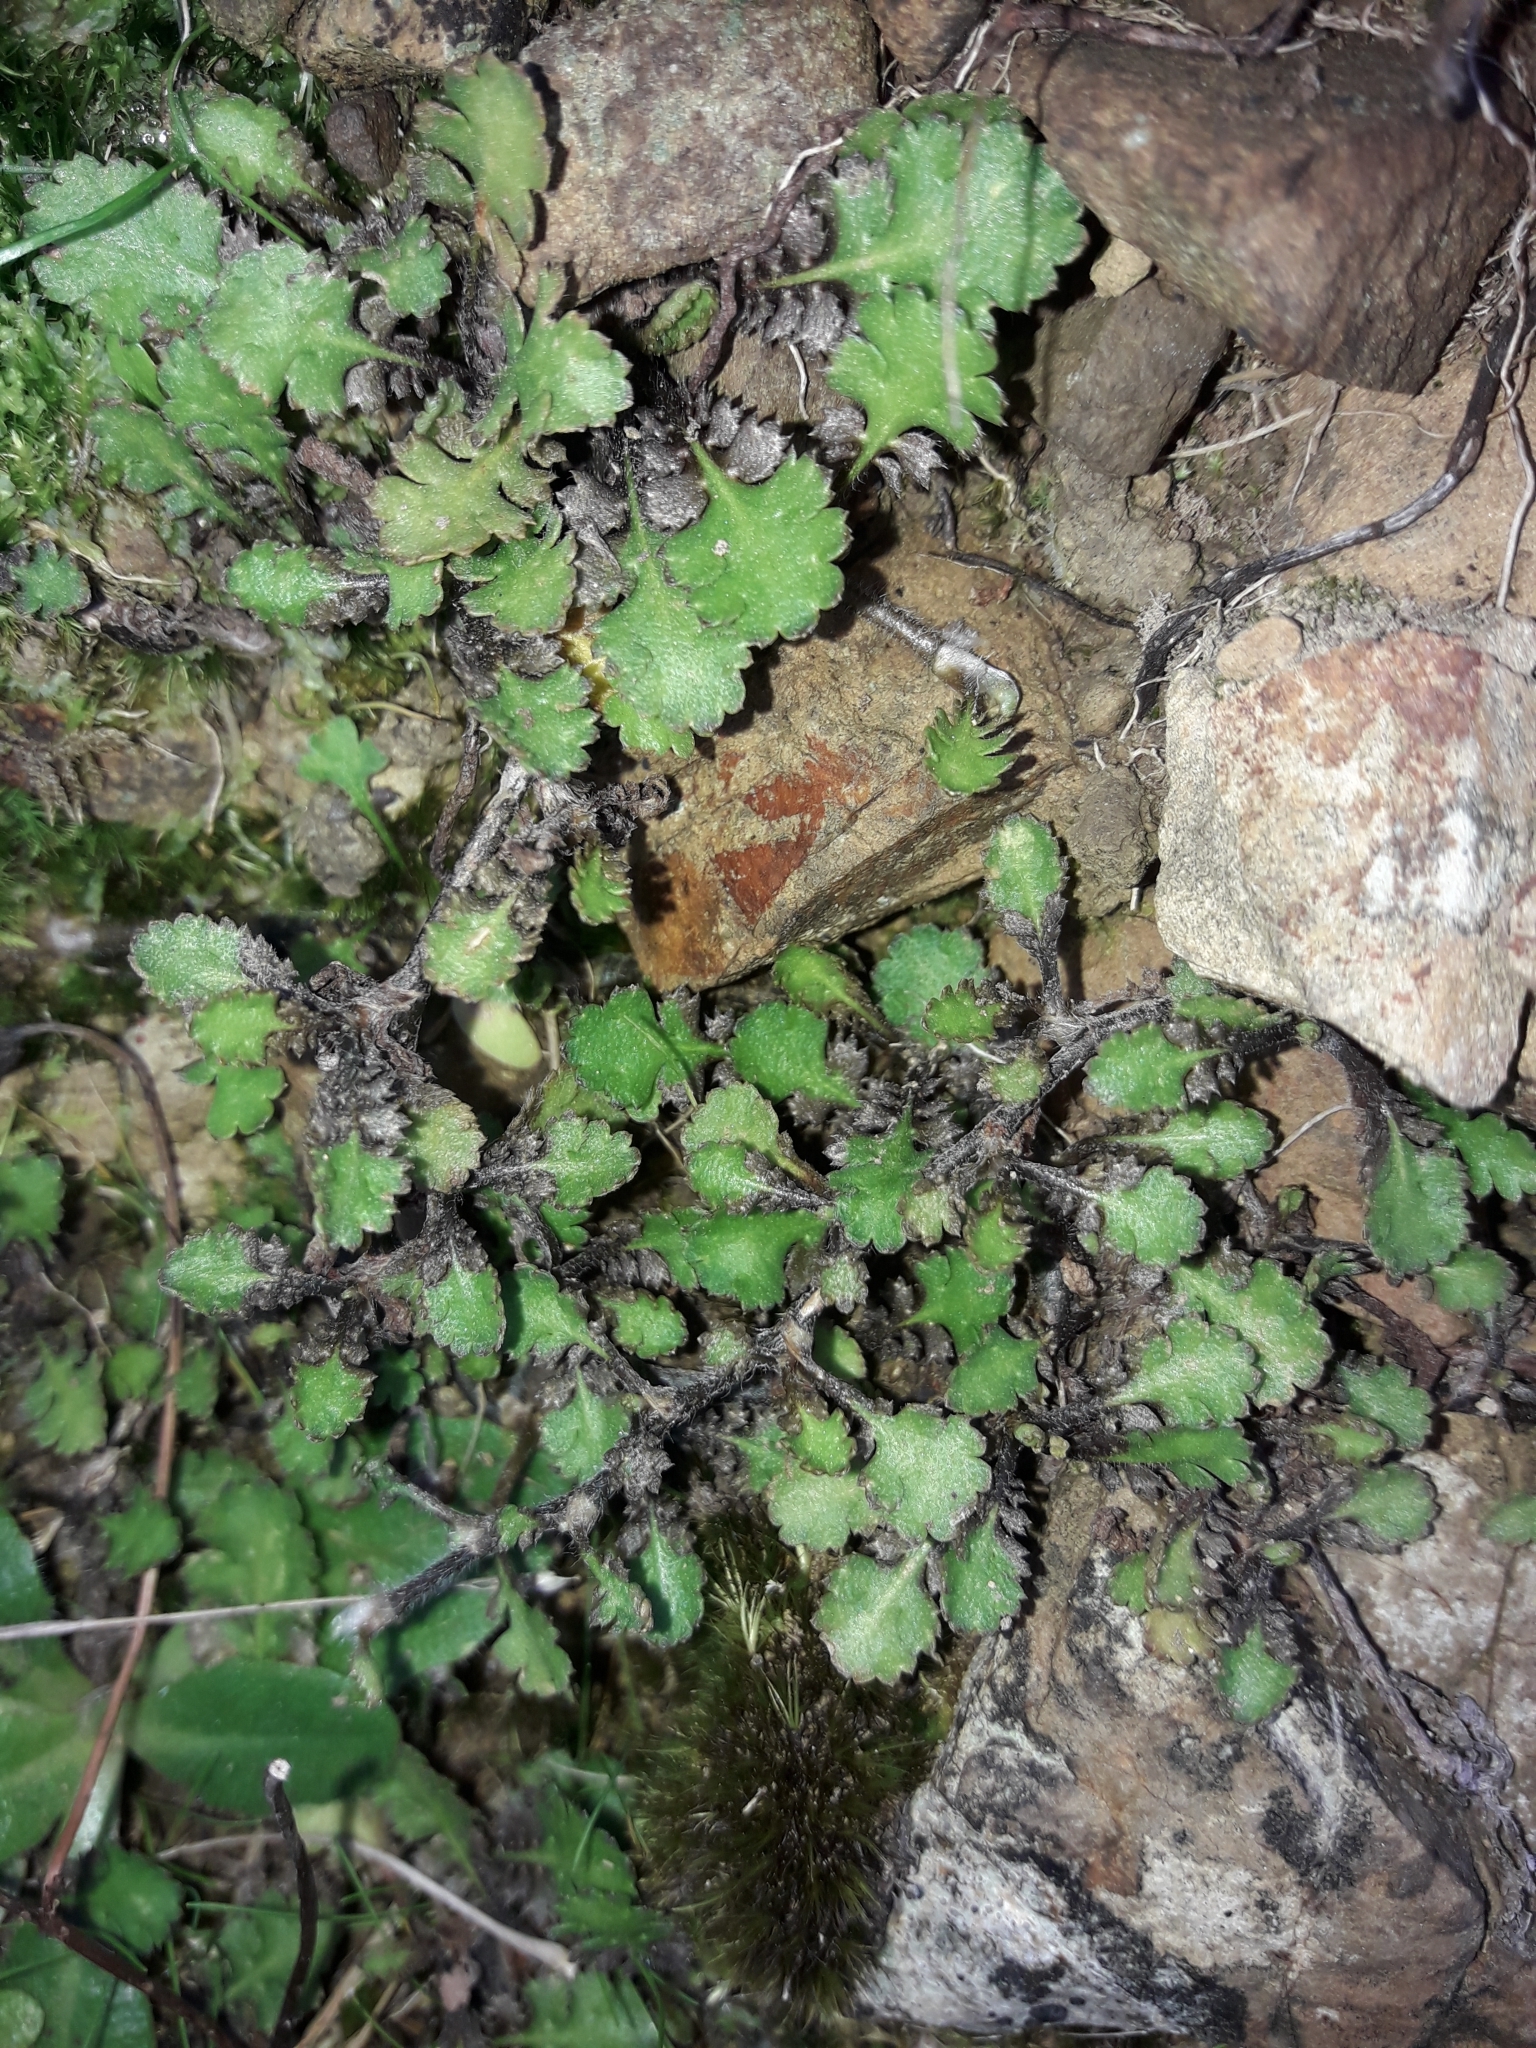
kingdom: Plantae
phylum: Tracheophyta
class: Magnoliopsida
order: Asterales
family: Asteraceae
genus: Leptinella
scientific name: Leptinella squalida
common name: New zealand brass-buttons
